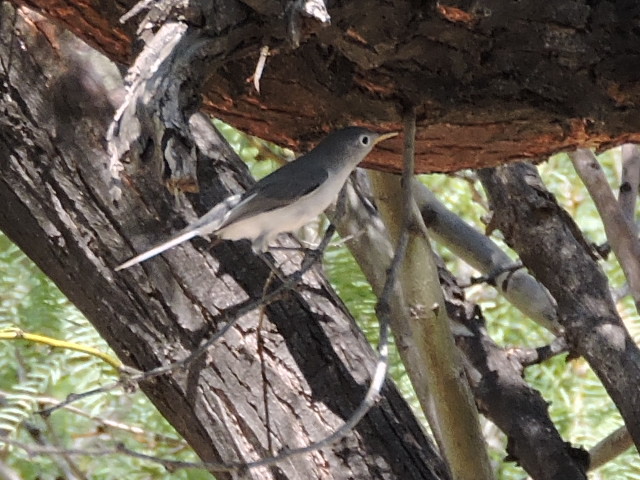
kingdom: Animalia
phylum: Chordata
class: Aves
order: Passeriformes
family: Polioptilidae
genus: Polioptila
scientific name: Polioptila caerulea
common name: Blue-gray gnatcatcher
